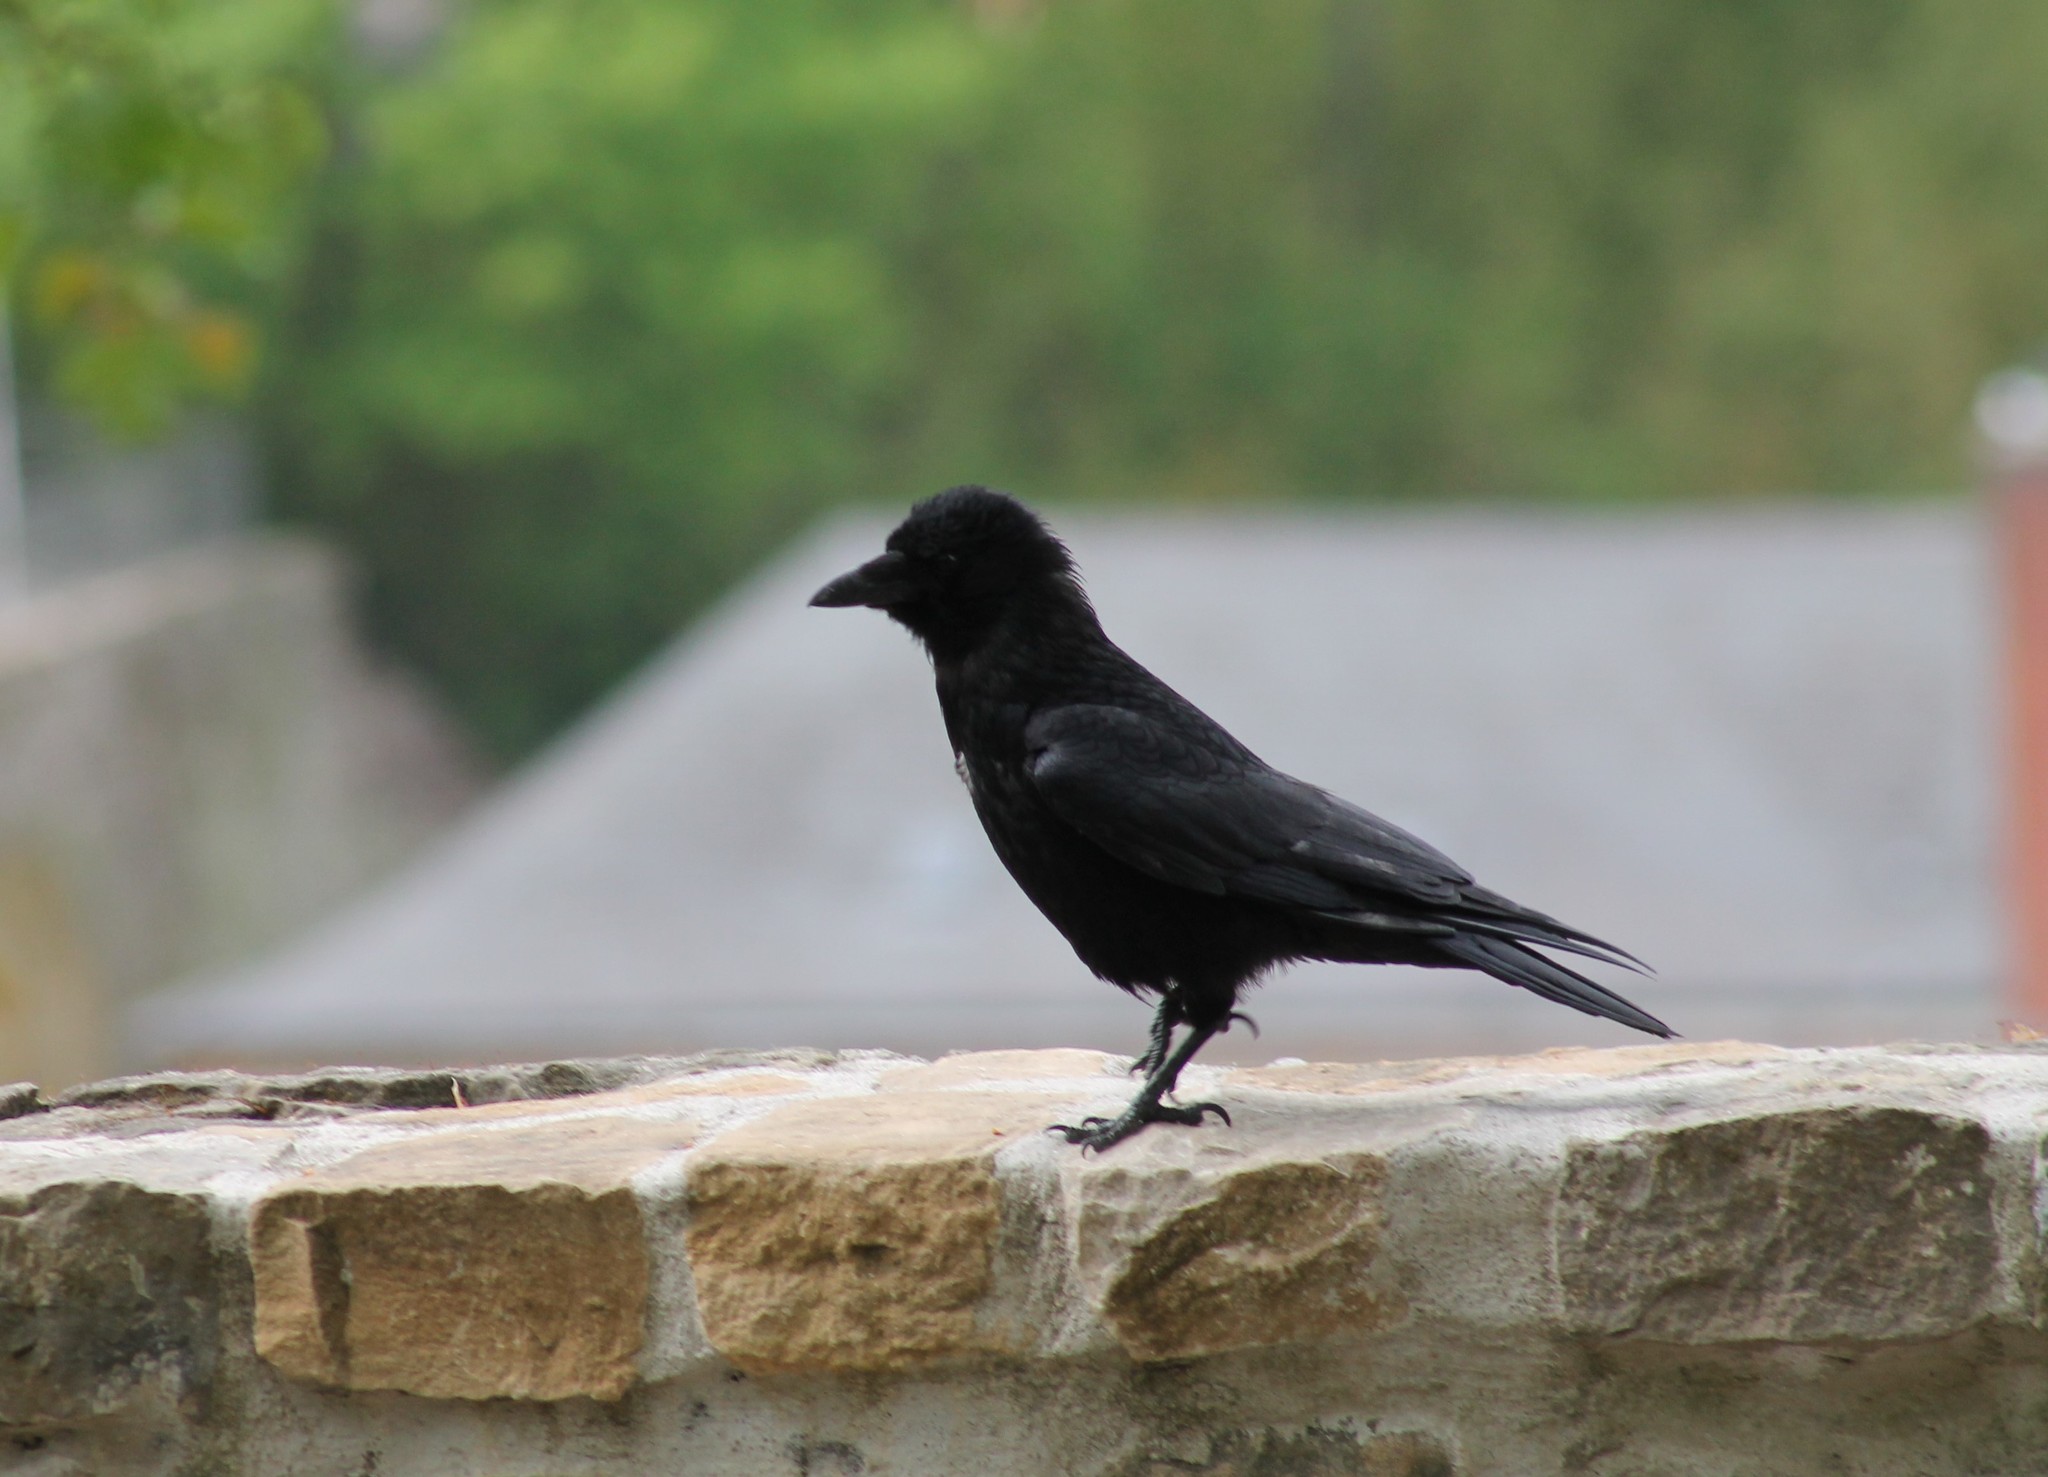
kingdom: Animalia
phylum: Chordata
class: Aves
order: Passeriformes
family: Corvidae
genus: Corvus
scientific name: Corvus corone
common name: Carrion crow
